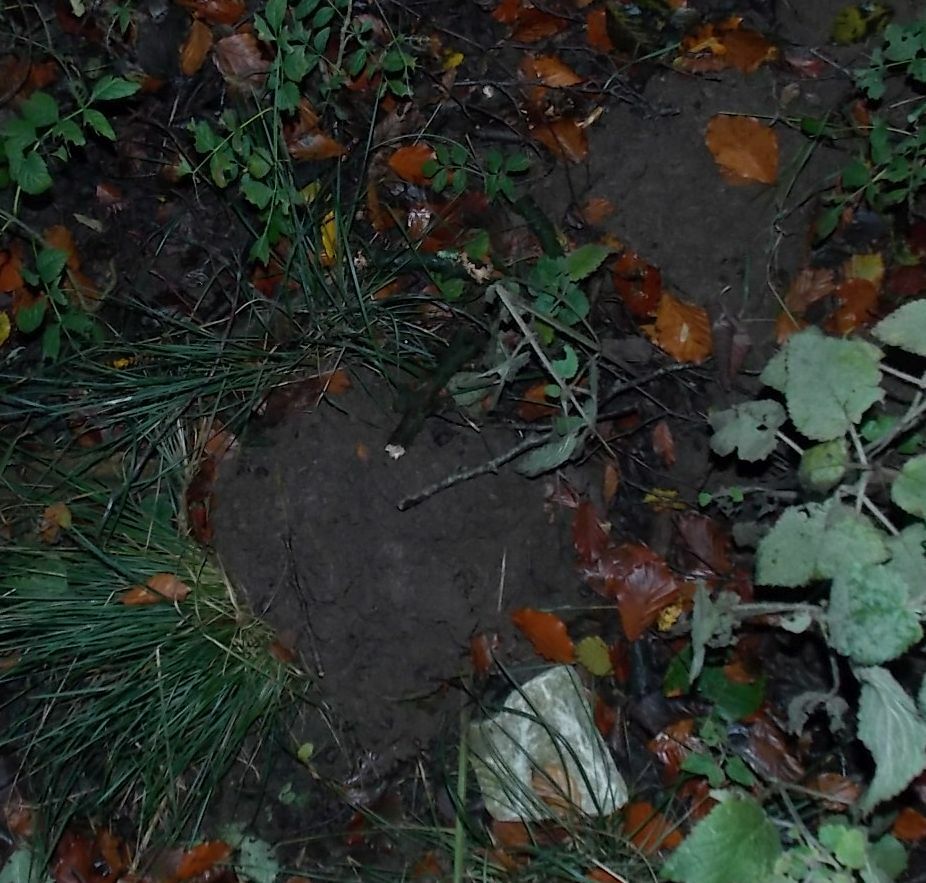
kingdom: Animalia
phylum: Chordata
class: Mammalia
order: Soricomorpha
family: Talpidae
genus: Talpa
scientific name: Talpa europaea
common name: European mole
